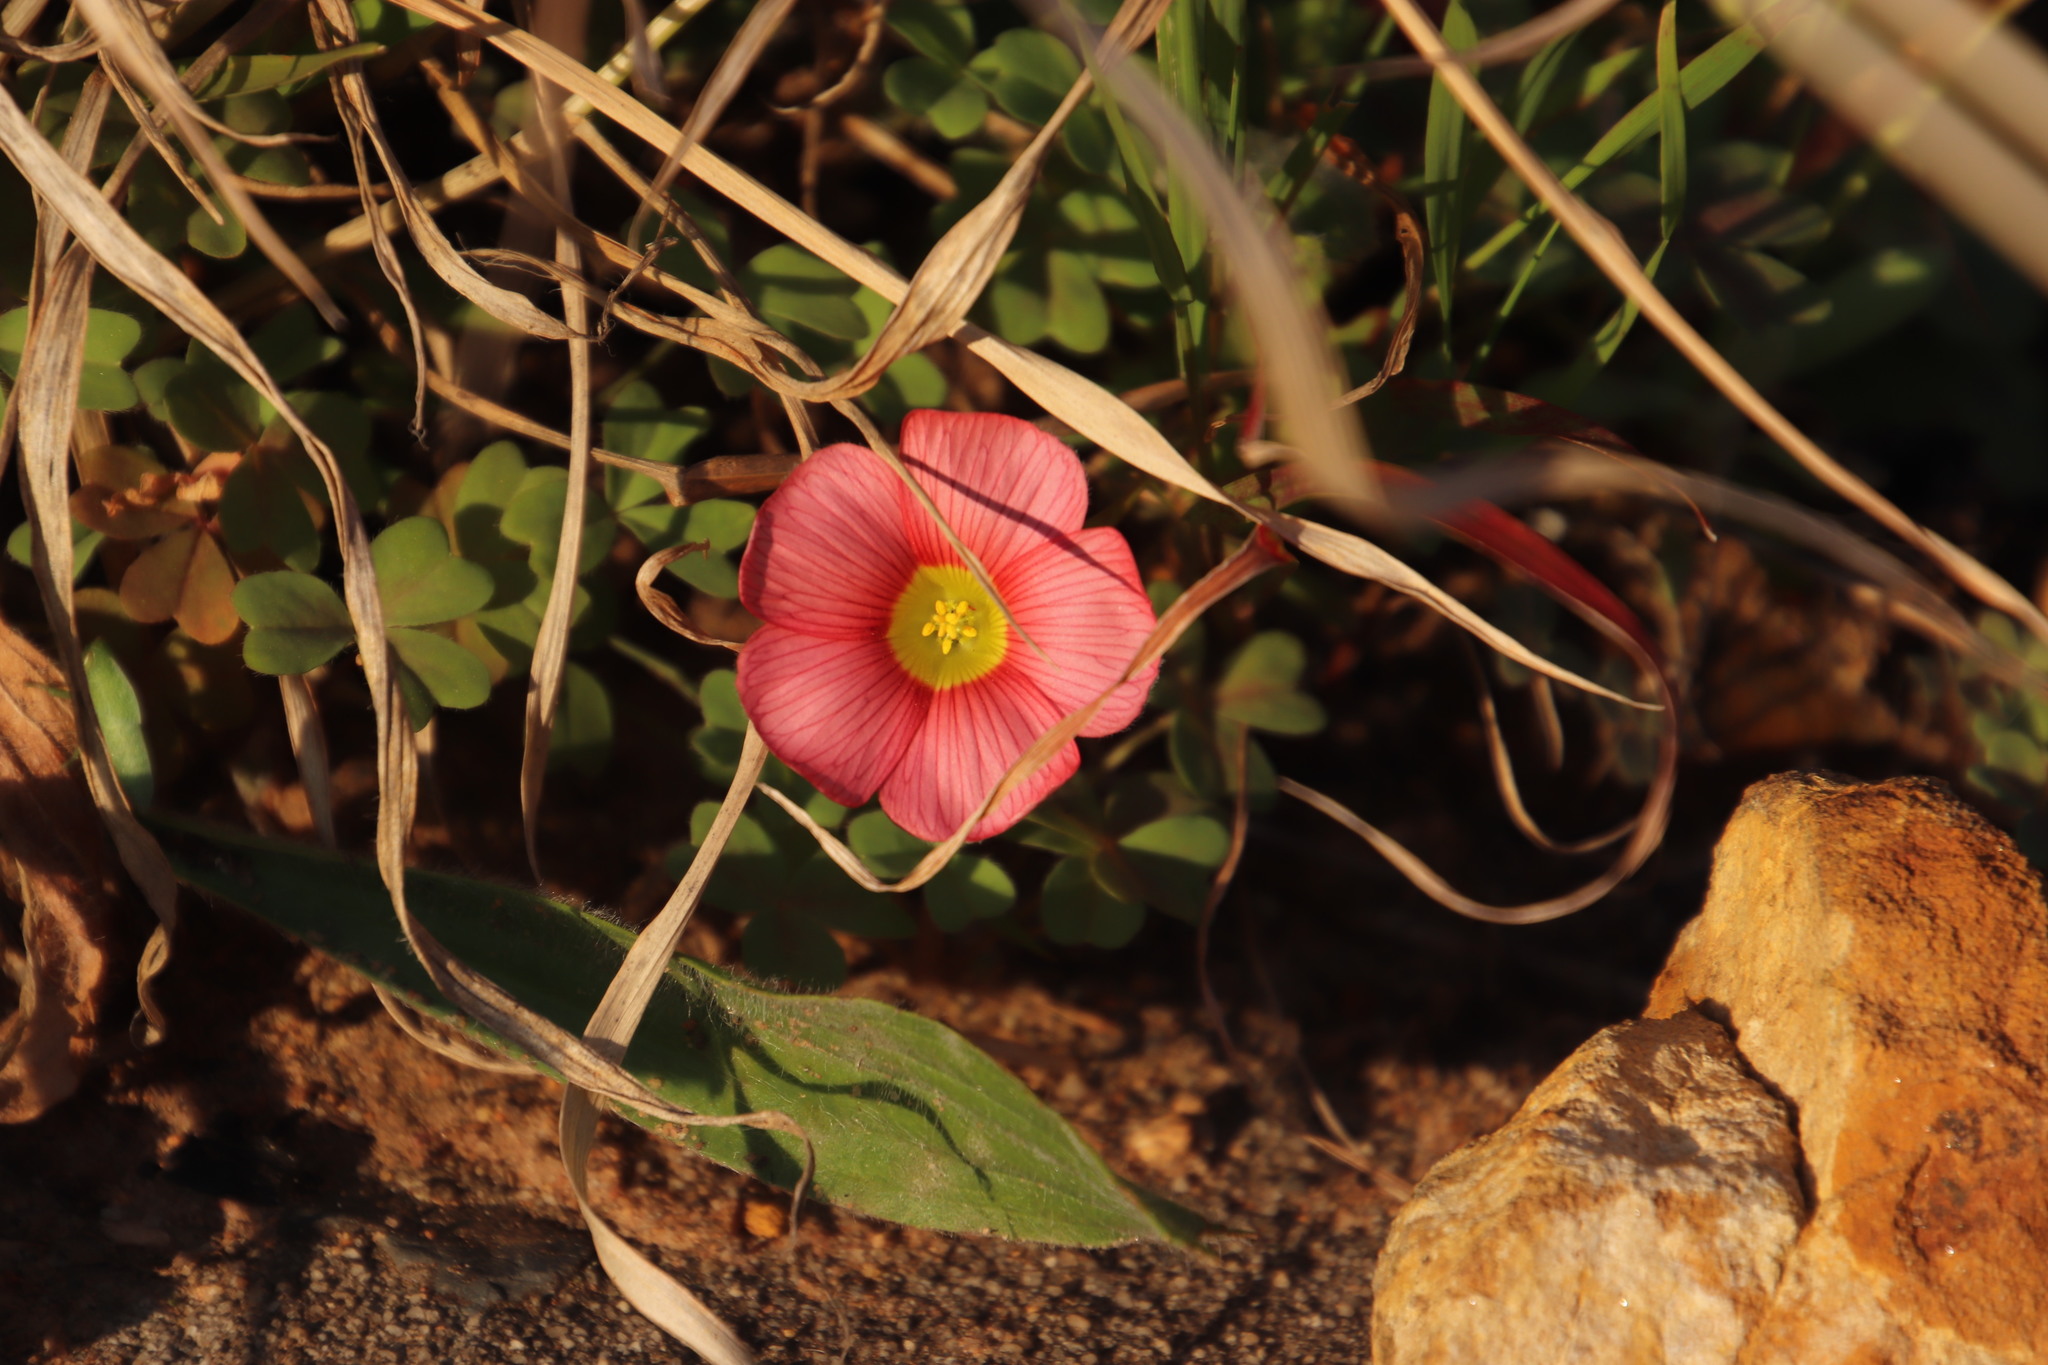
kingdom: Plantae
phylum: Tracheophyta
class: Magnoliopsida
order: Oxalidales
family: Oxalidaceae
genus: Oxalis
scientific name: Oxalis obtusa
